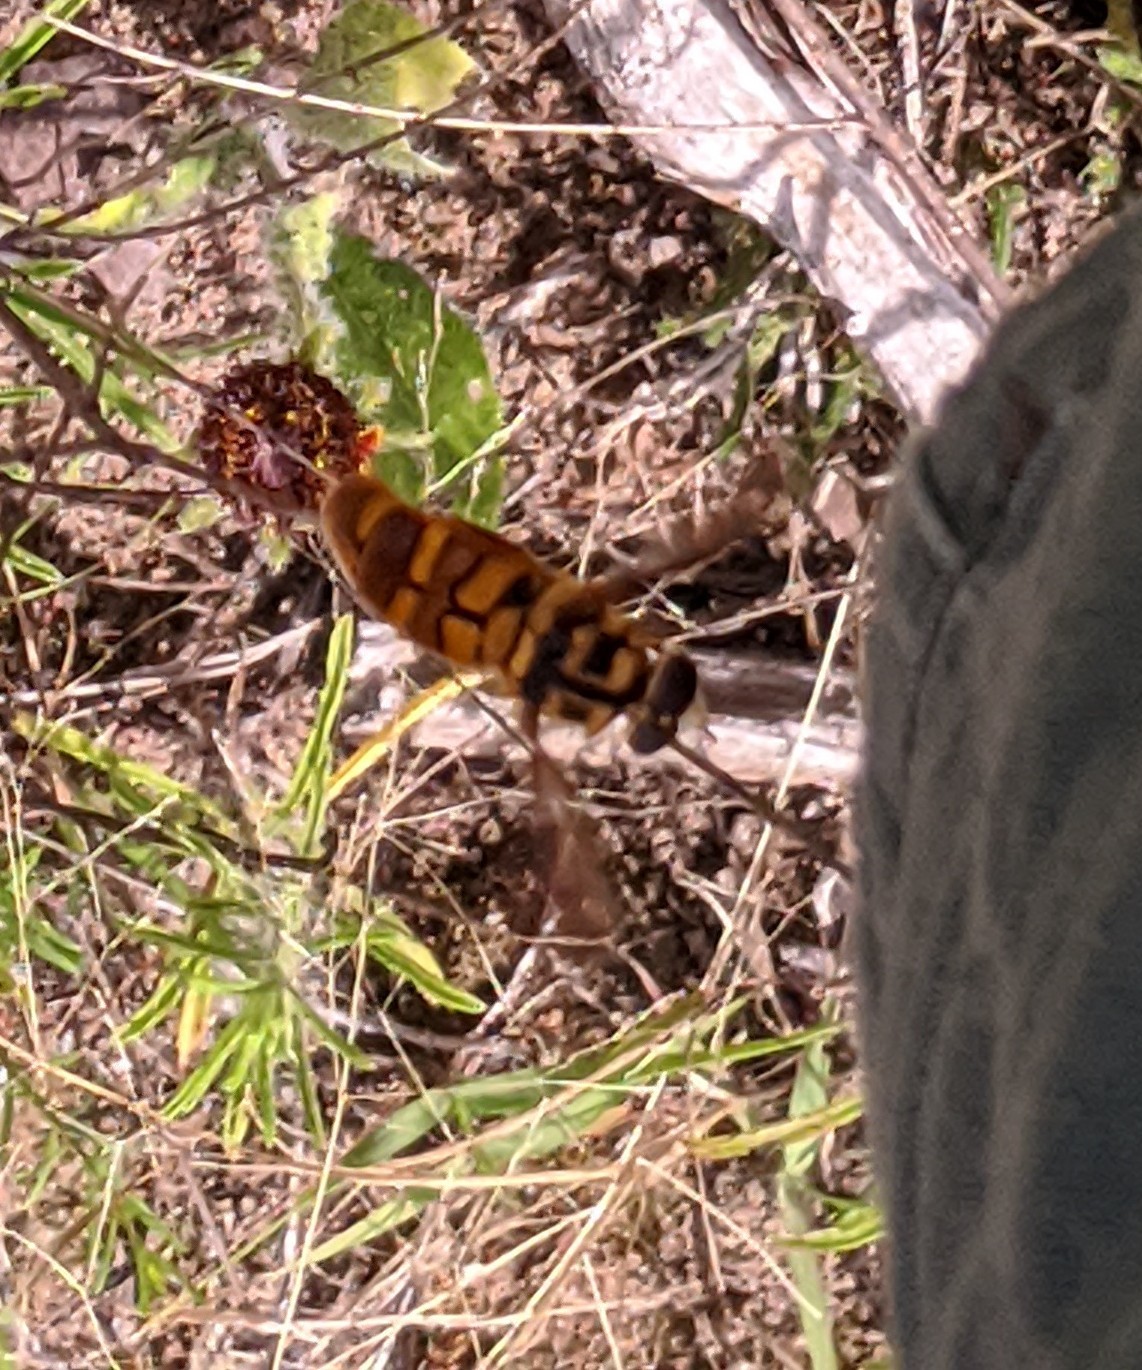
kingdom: Animalia
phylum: Arthropoda
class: Insecta
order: Diptera
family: Syrphidae
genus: Milesia
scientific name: Milesia virginiensis
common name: Virginia giant
